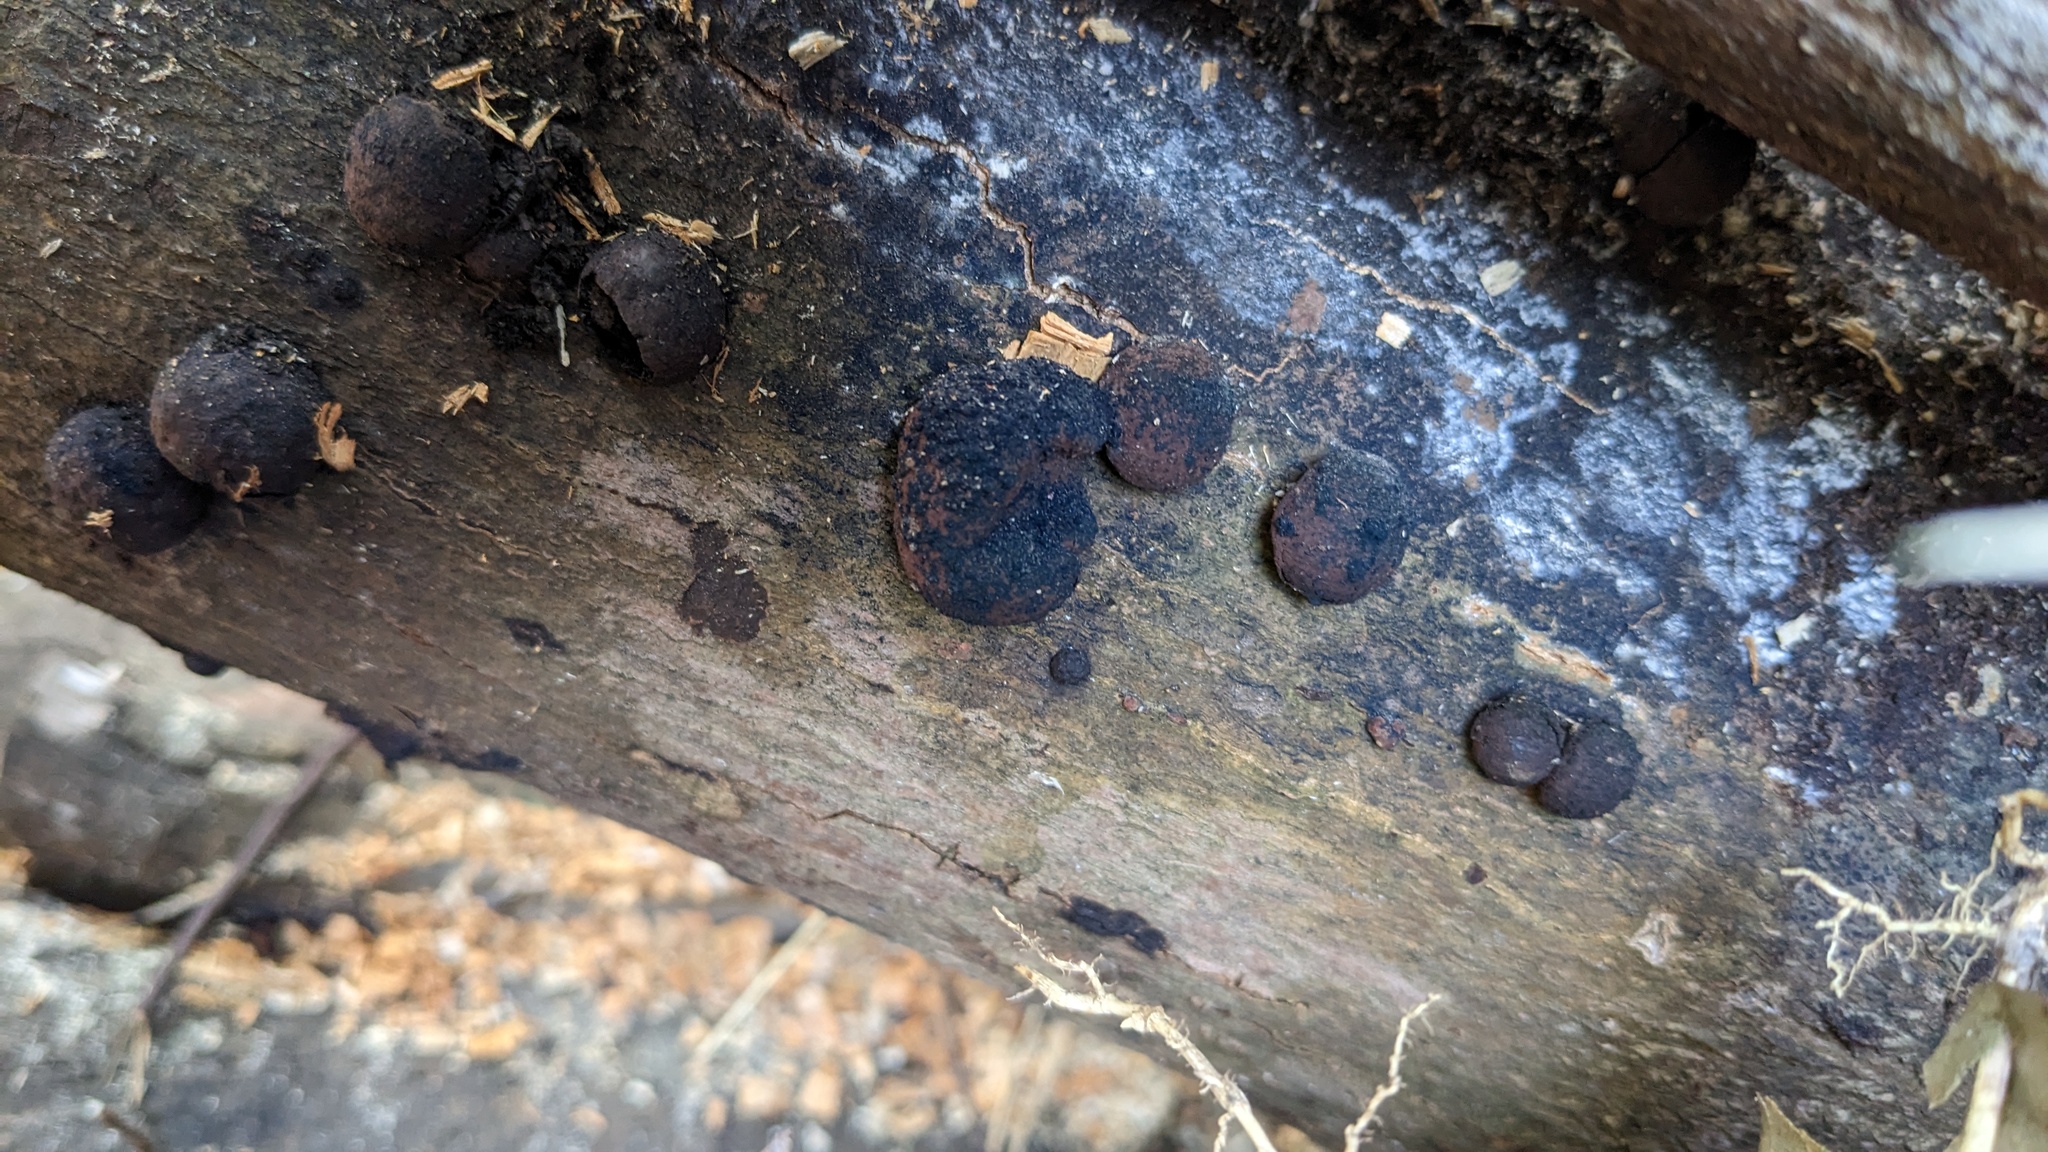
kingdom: Fungi
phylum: Ascomycota
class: Sordariomycetes
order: Xylariales
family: Hypoxylaceae
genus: Daldinia
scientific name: Daldinia childiae
